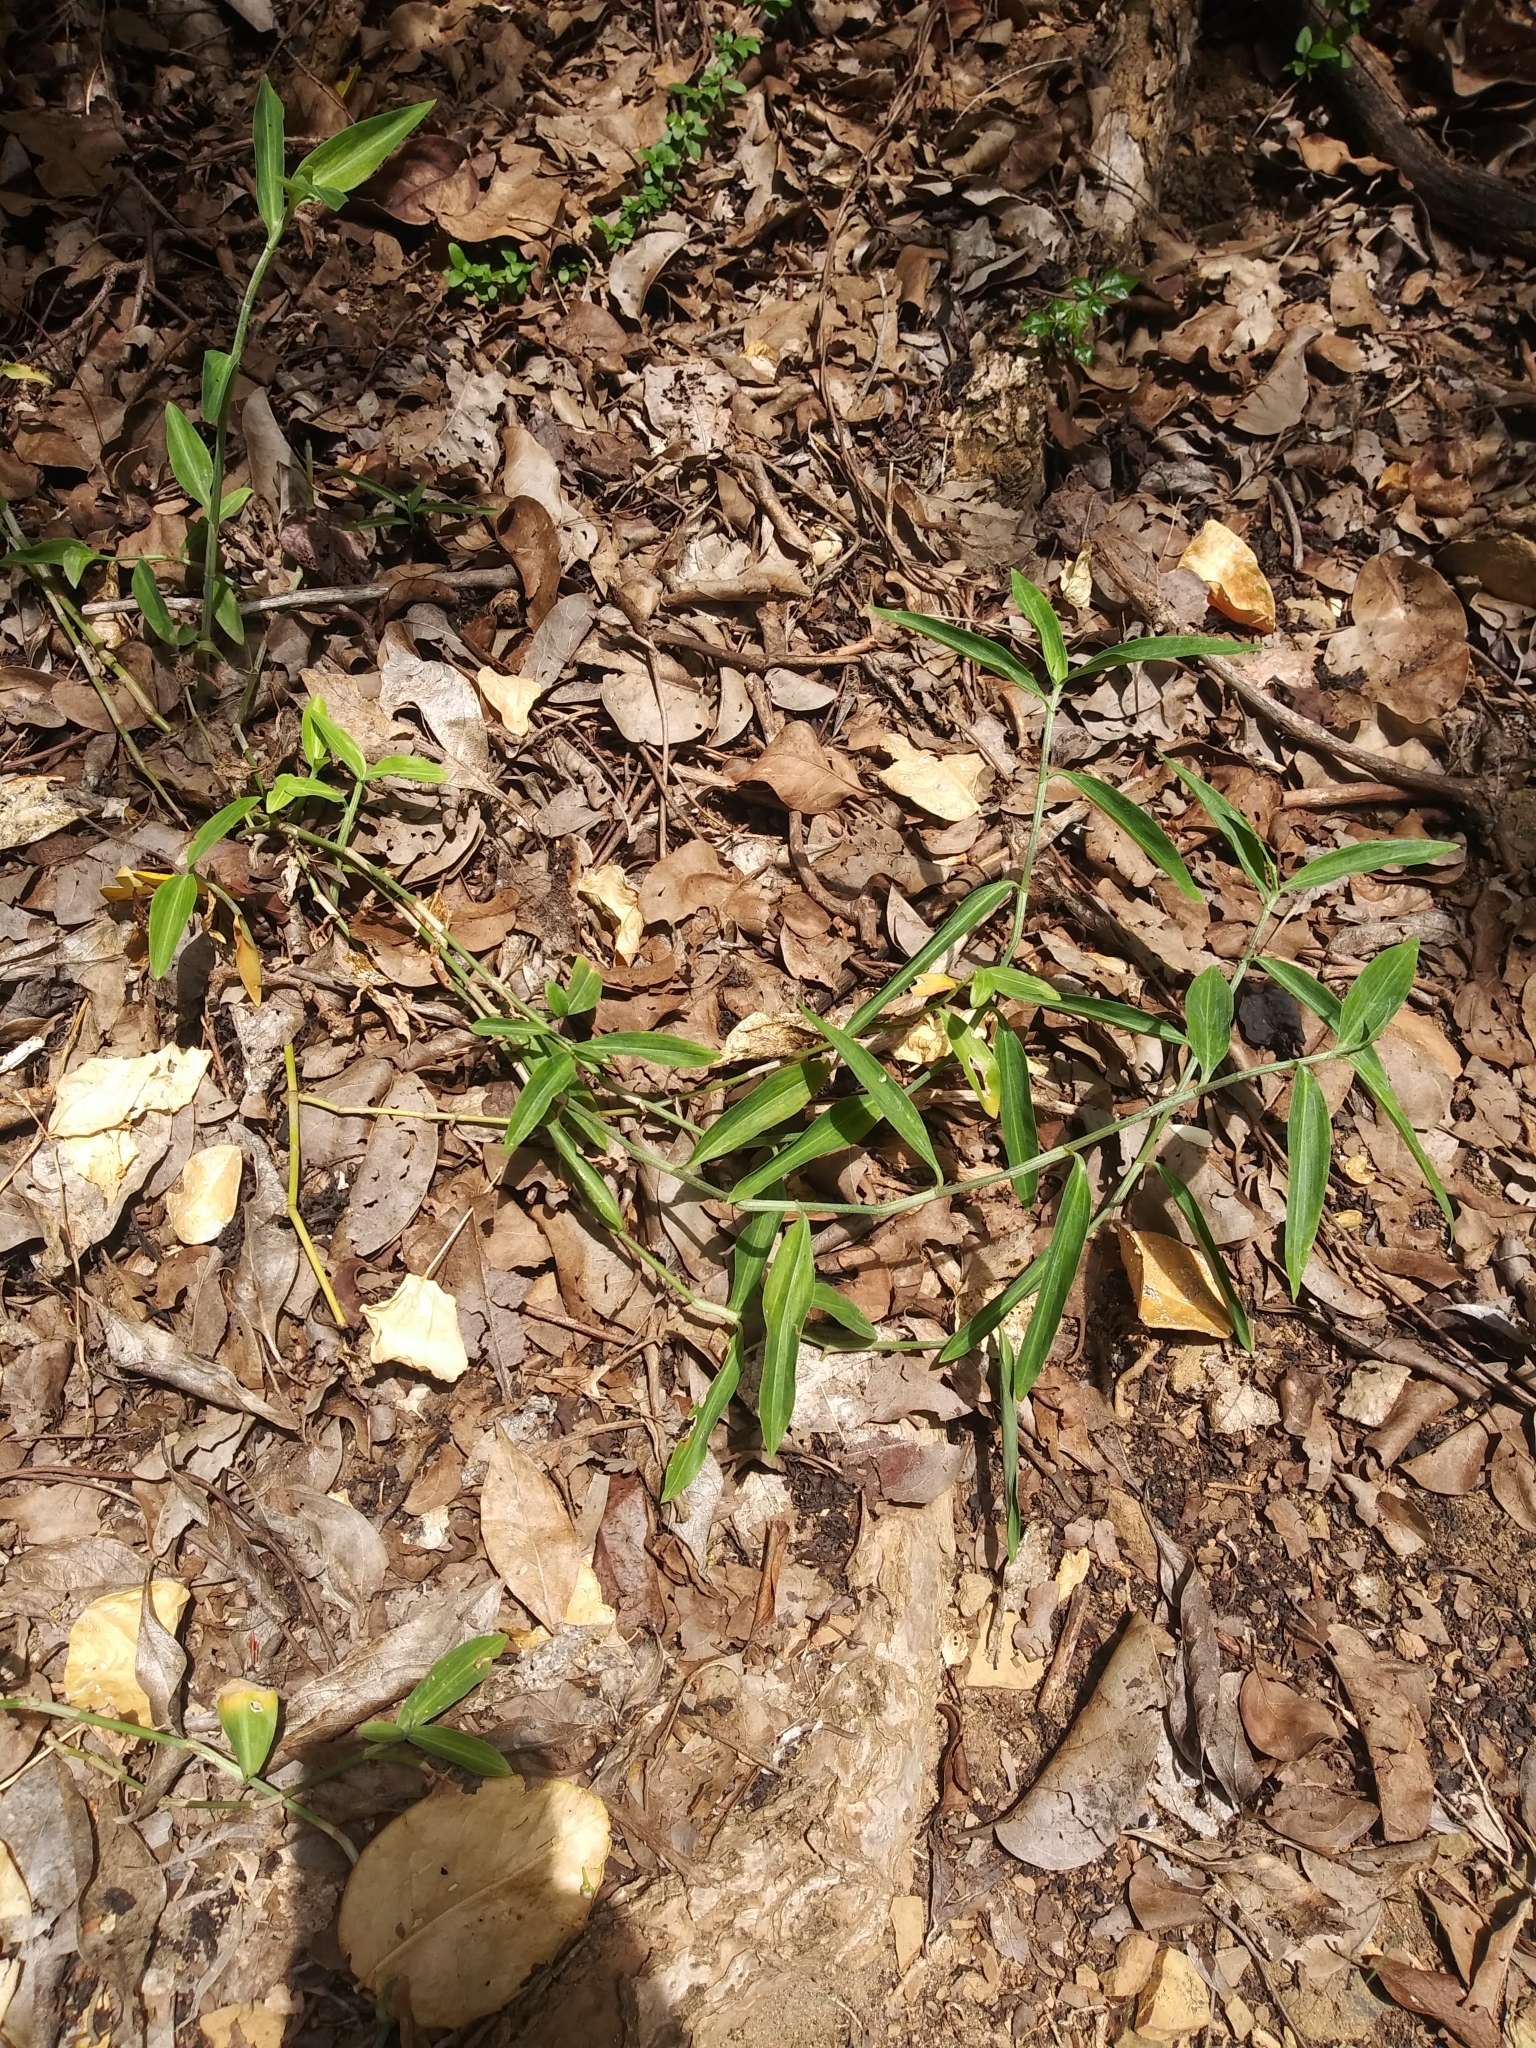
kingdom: Plantae
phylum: Tracheophyta
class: Liliopsida
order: Commelinales
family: Commelinaceae
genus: Commelina
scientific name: Commelina erecta
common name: Blousel blommetjie
